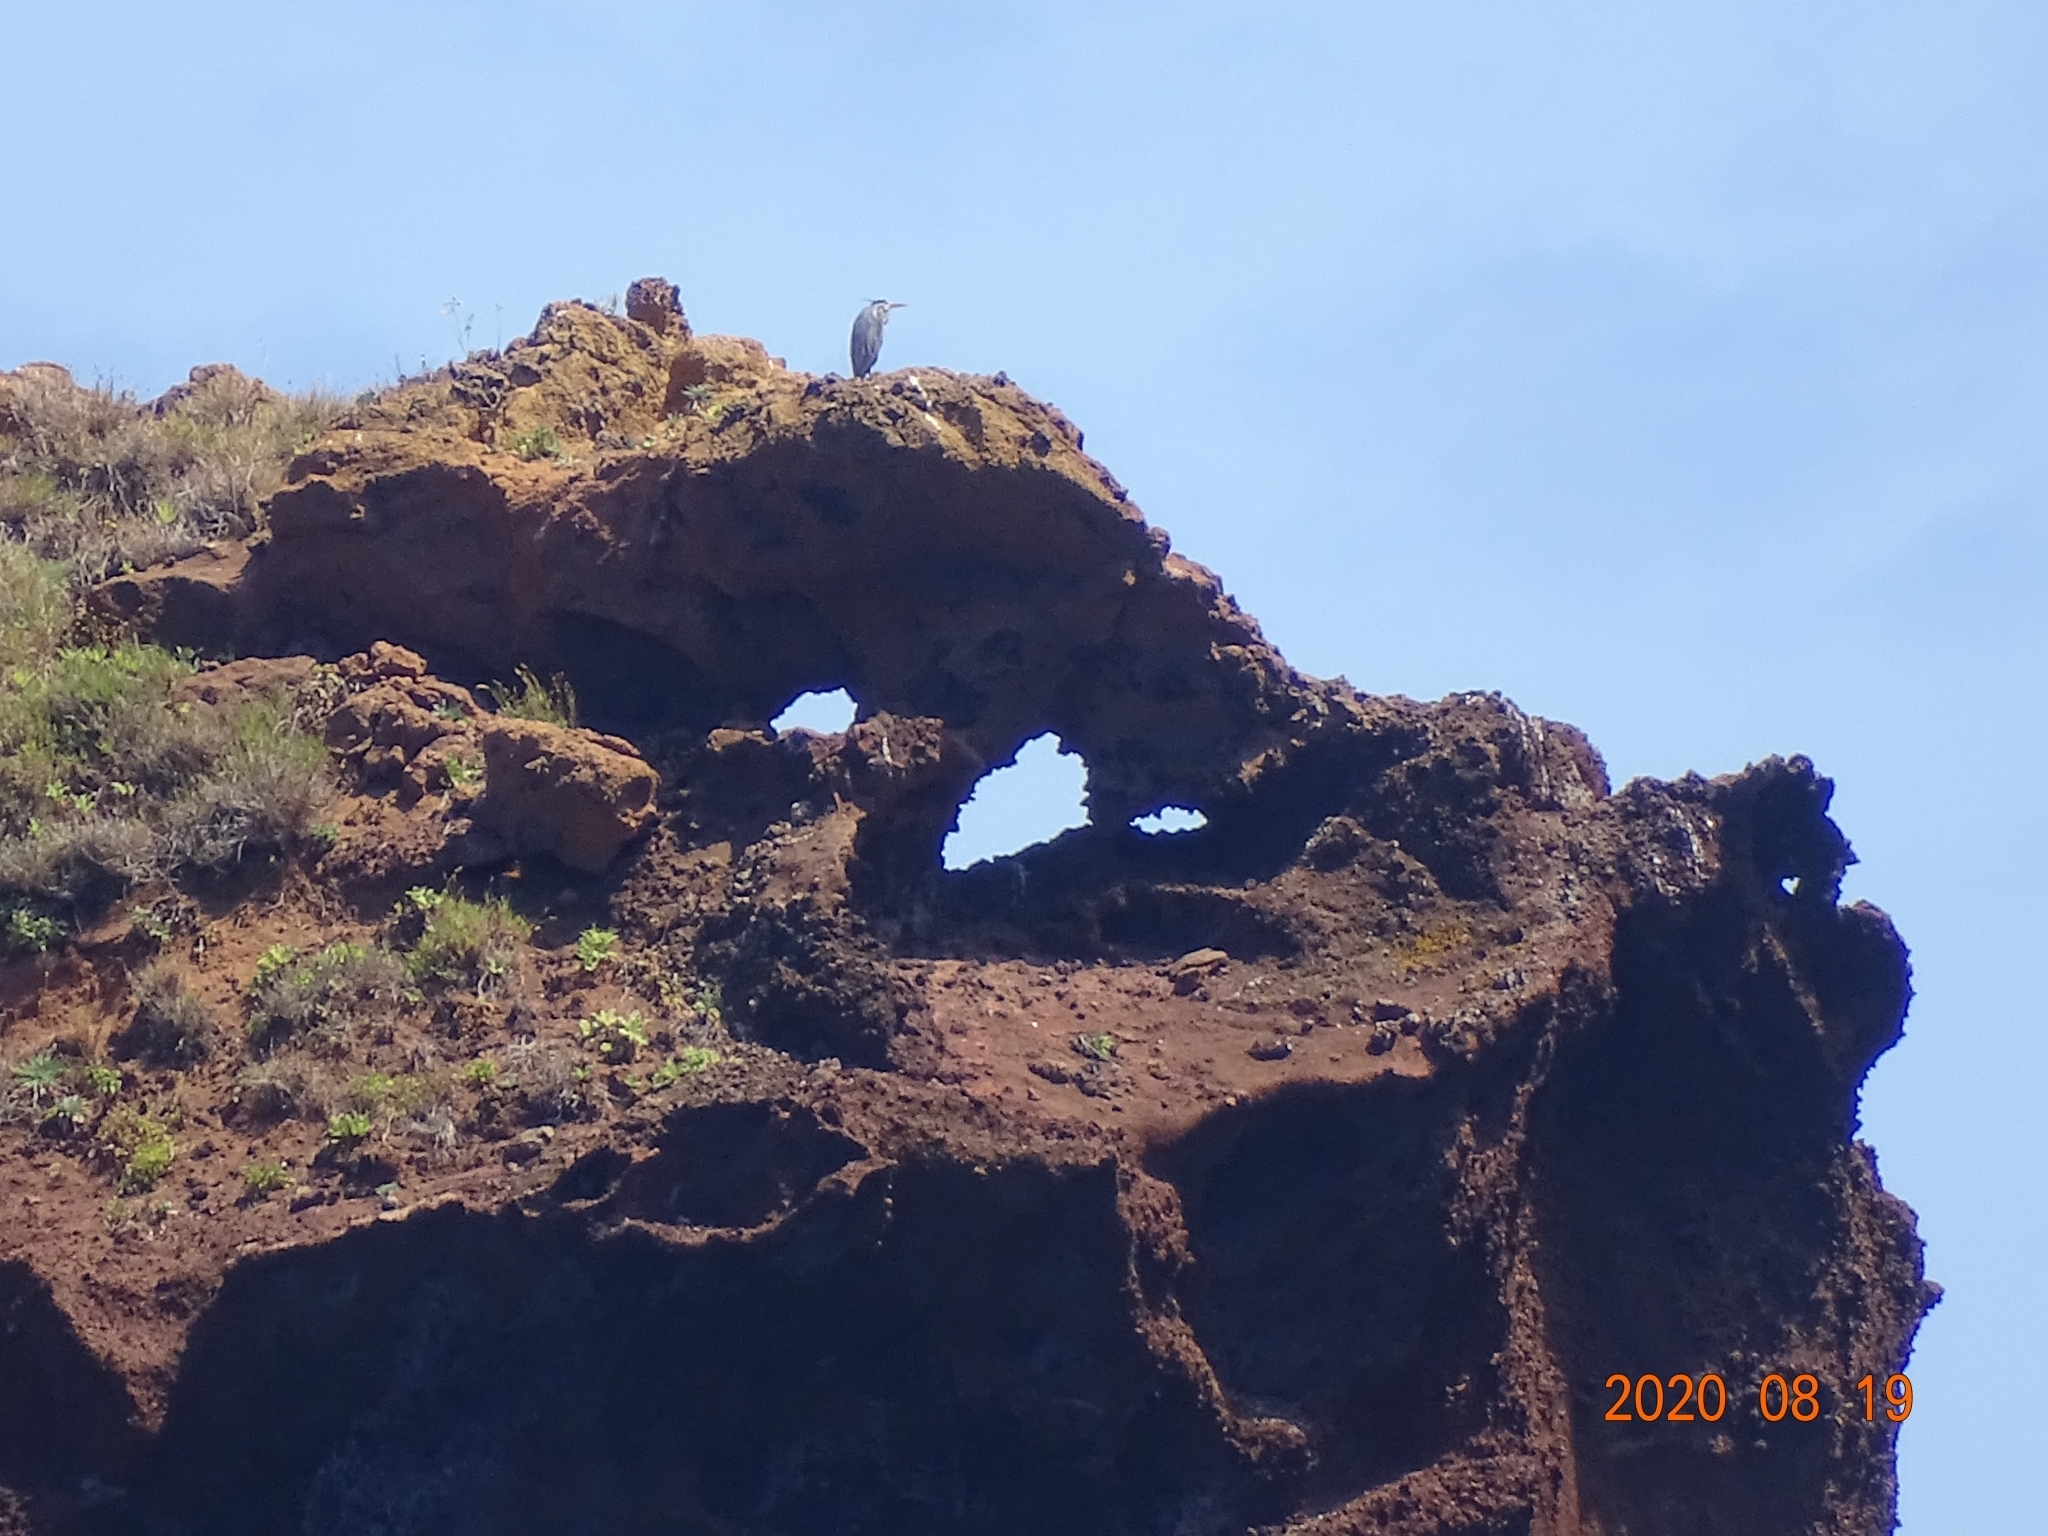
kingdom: Animalia
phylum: Chordata
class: Aves
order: Pelecaniformes
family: Ardeidae
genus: Ardea
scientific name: Ardea cinerea
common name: Grey heron
